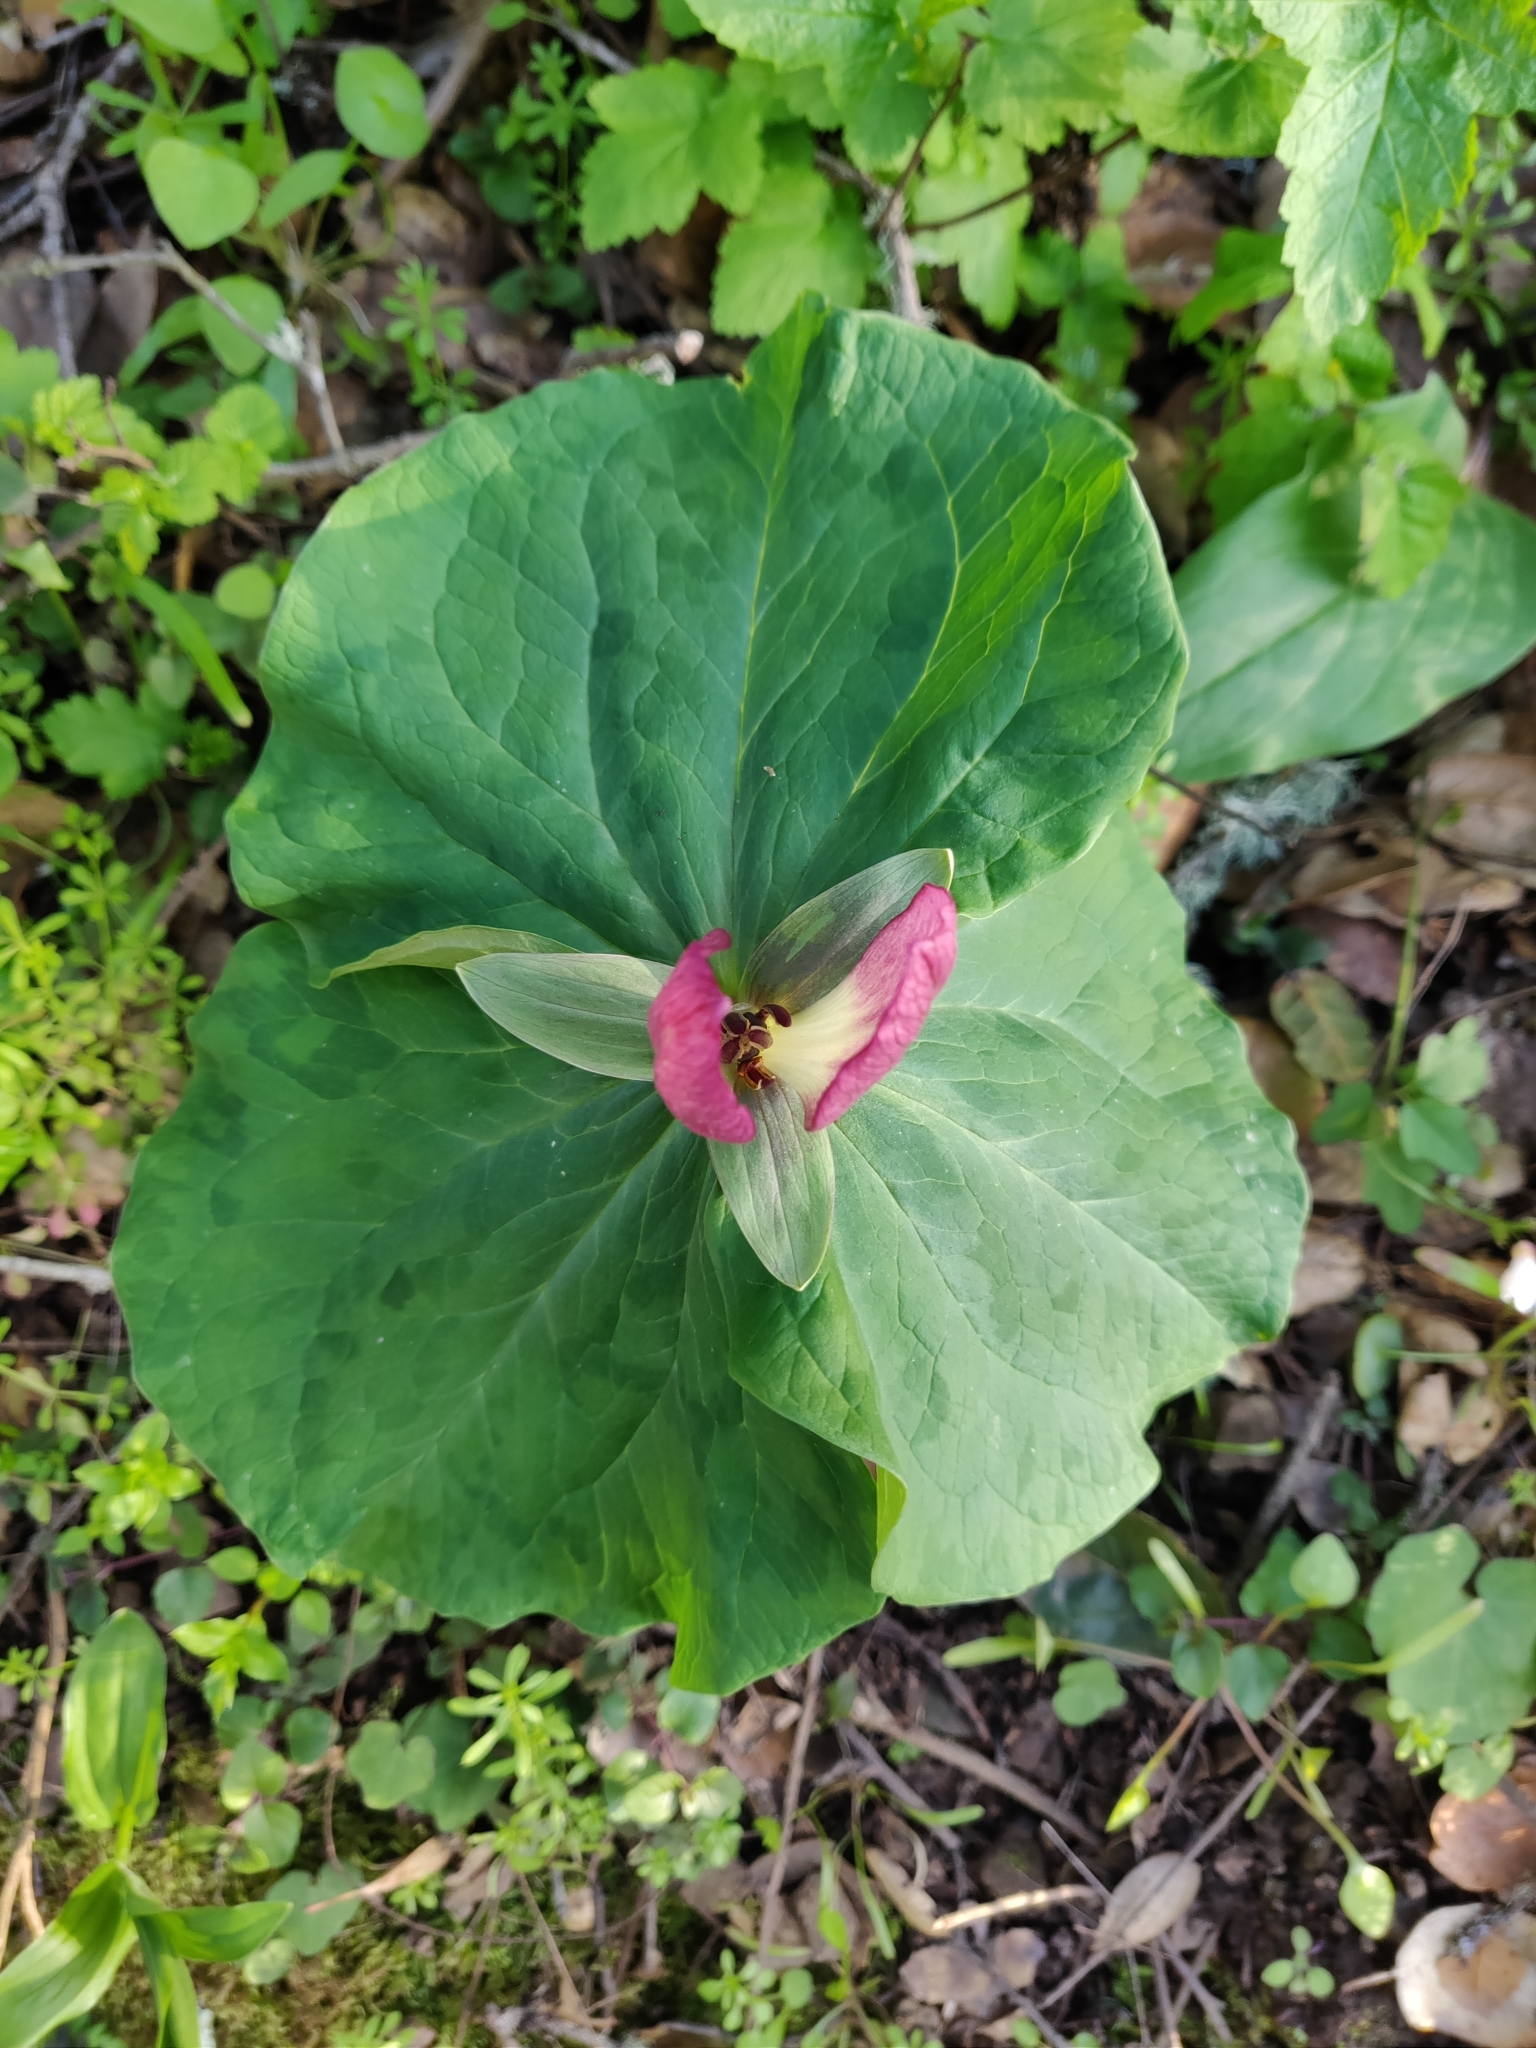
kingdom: Plantae
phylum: Tracheophyta
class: Liliopsida
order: Liliales
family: Melanthiaceae
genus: Trillium
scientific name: Trillium chloropetalum
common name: Giant trillium
